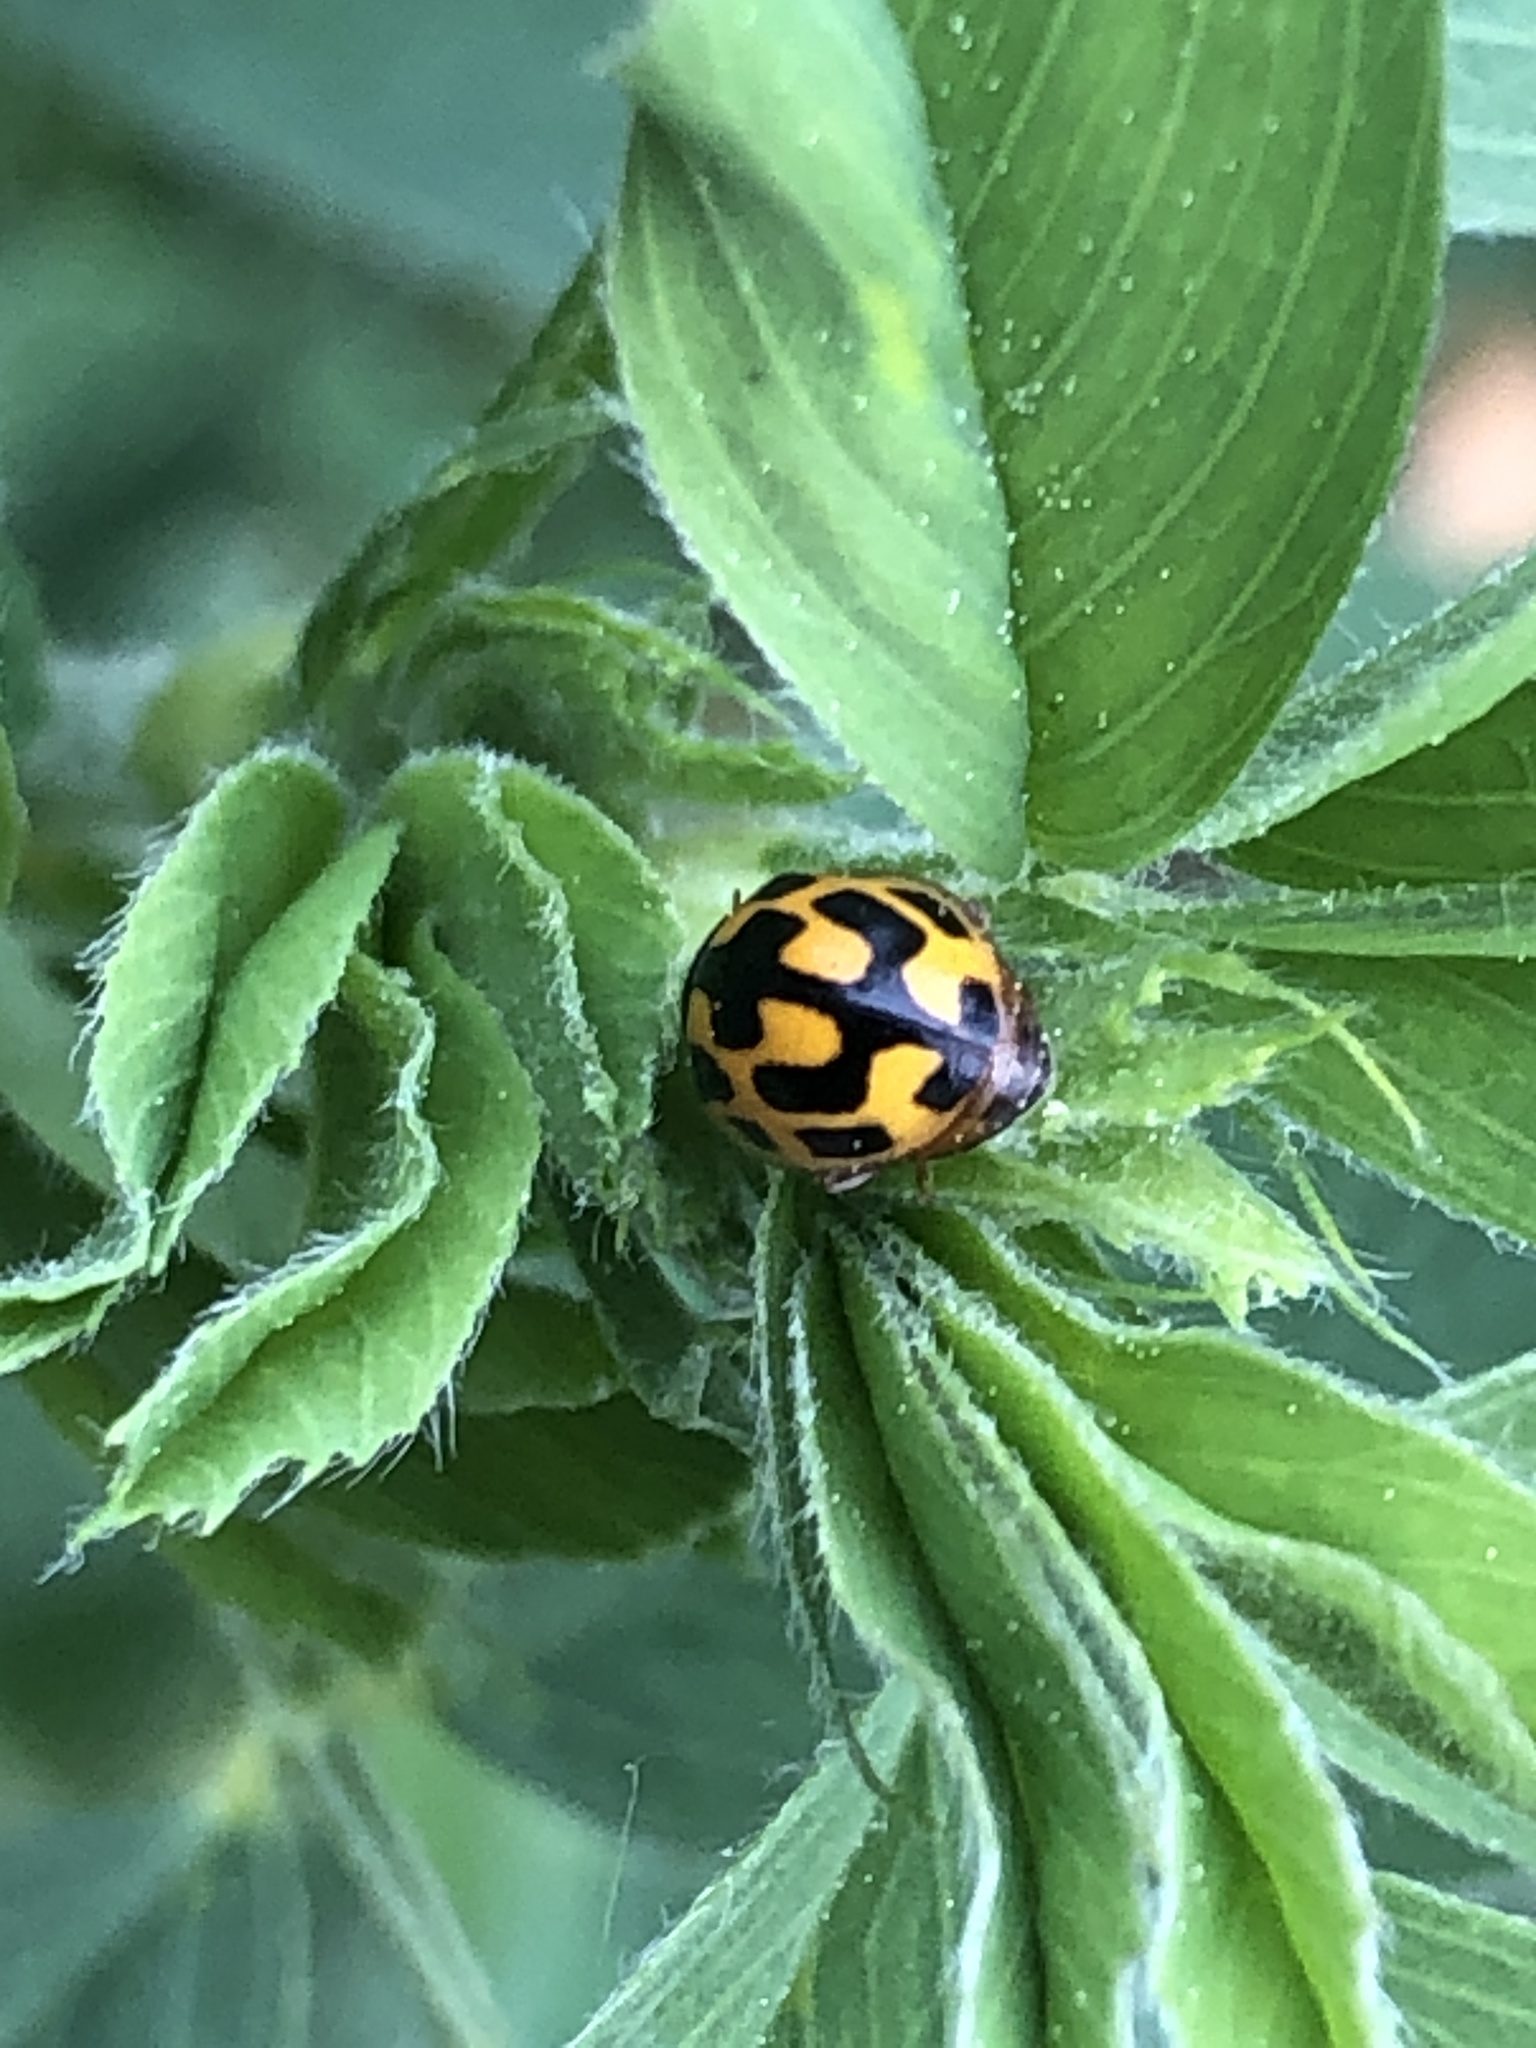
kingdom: Animalia
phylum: Arthropoda
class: Insecta
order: Coleoptera
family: Coccinellidae
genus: Propylaea
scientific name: Propylaea quatuordecimpunctata
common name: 14-spotted ladybird beetle
